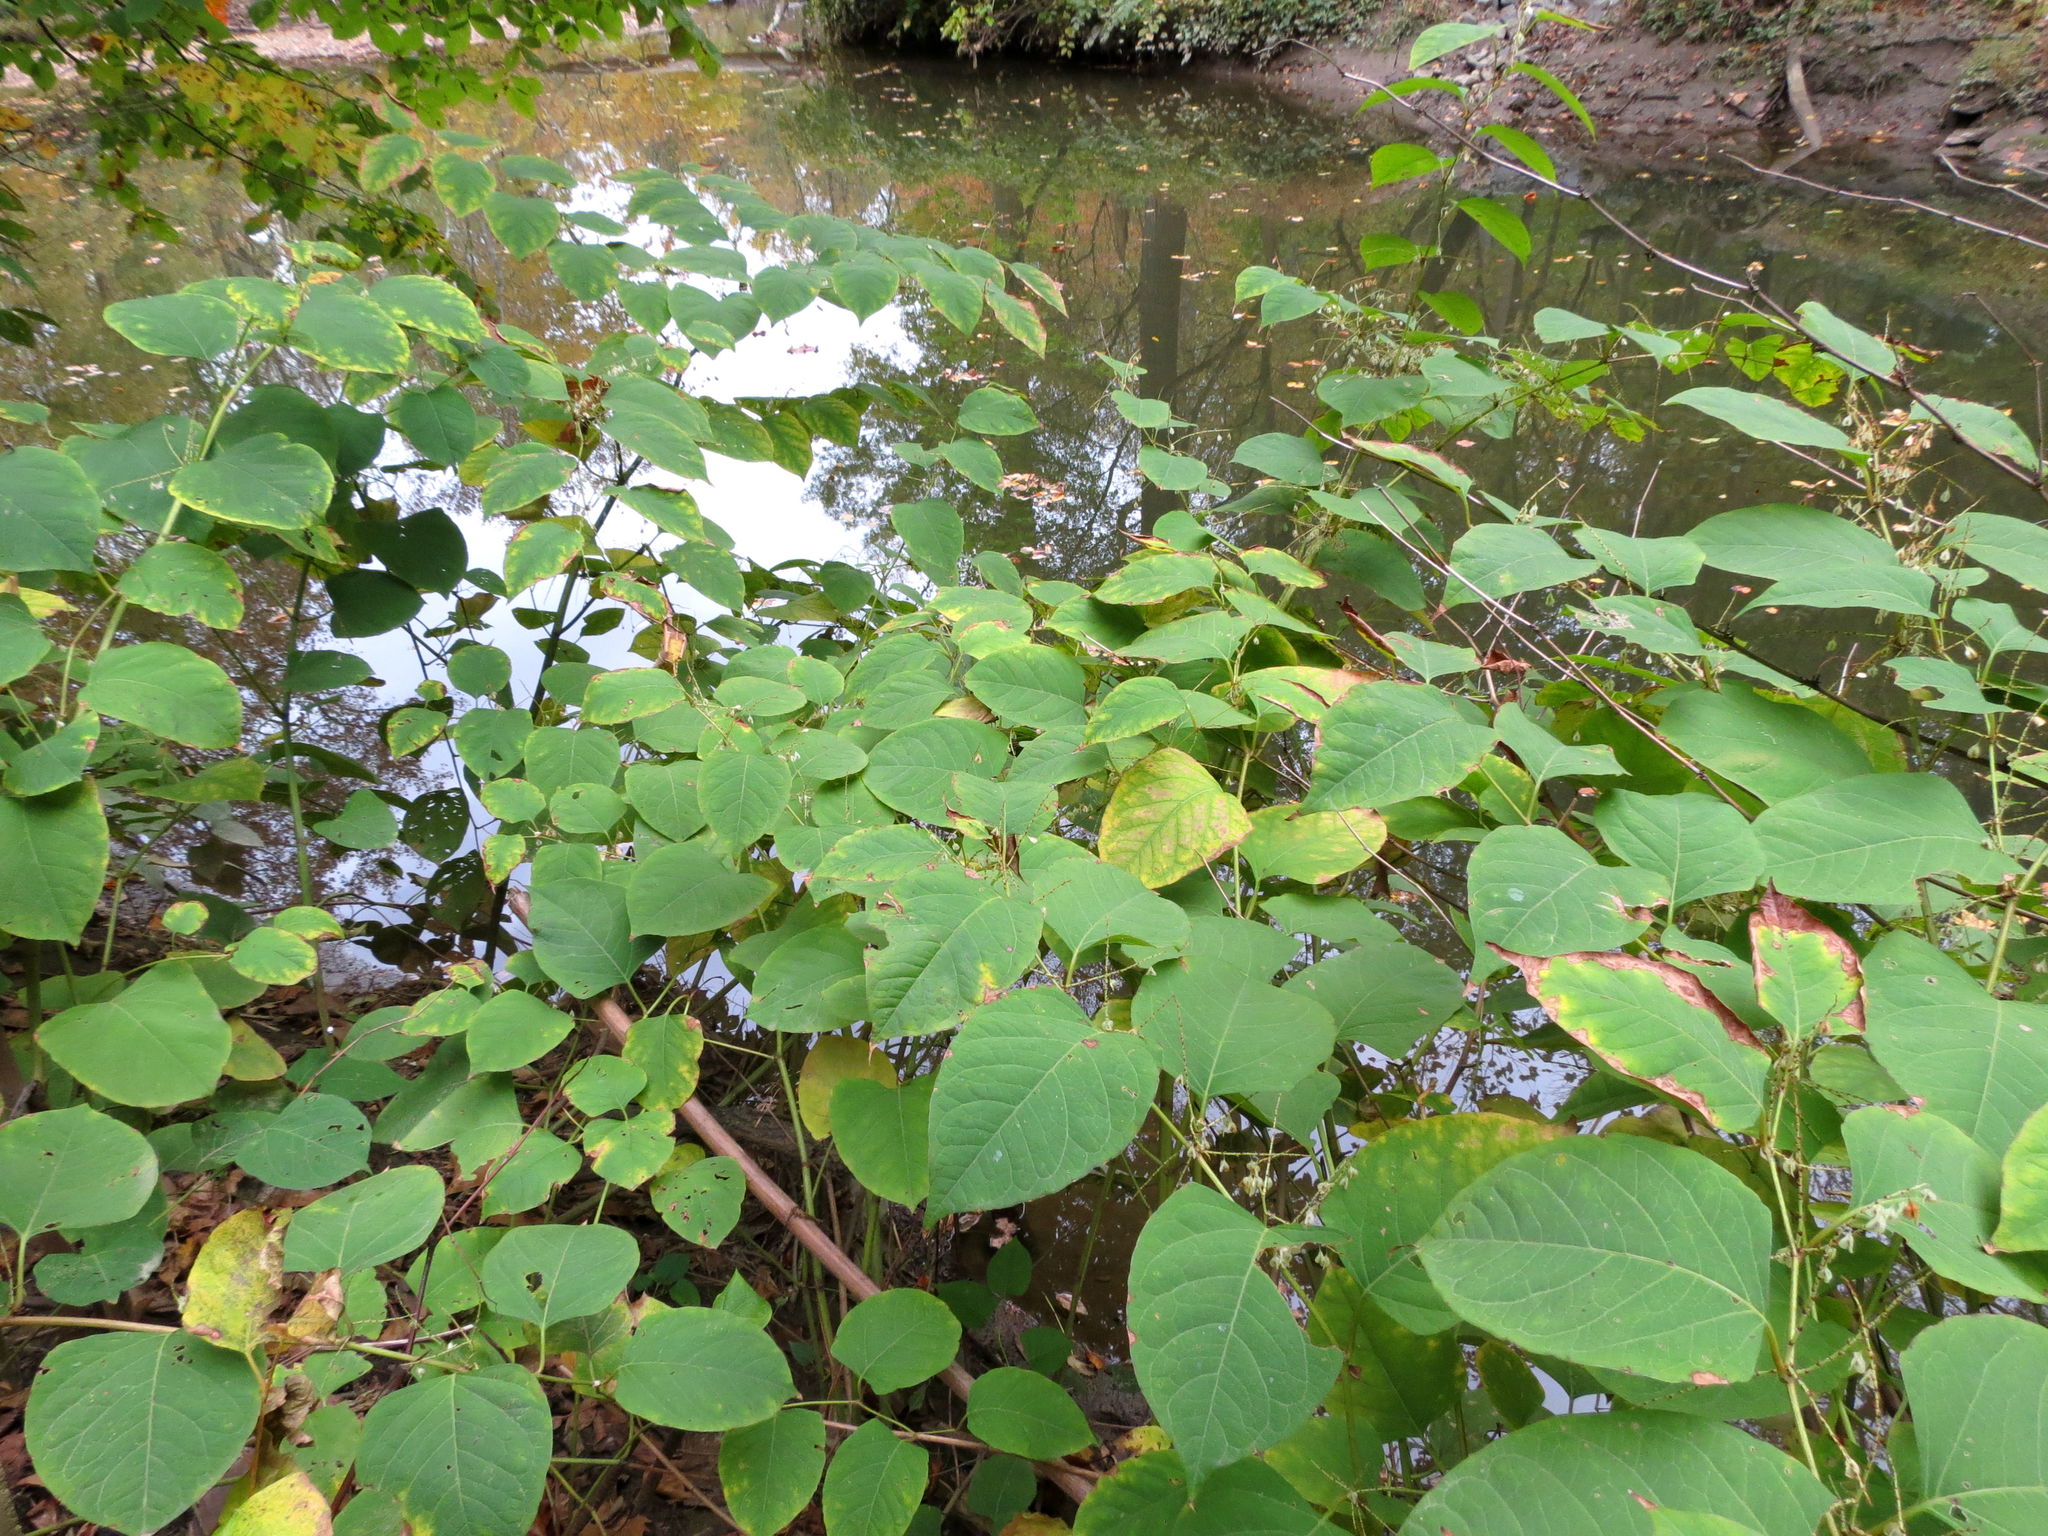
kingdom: Plantae
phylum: Tracheophyta
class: Magnoliopsida
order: Caryophyllales
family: Polygonaceae
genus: Reynoutria
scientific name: Reynoutria japonica
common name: Japanese knotweed
